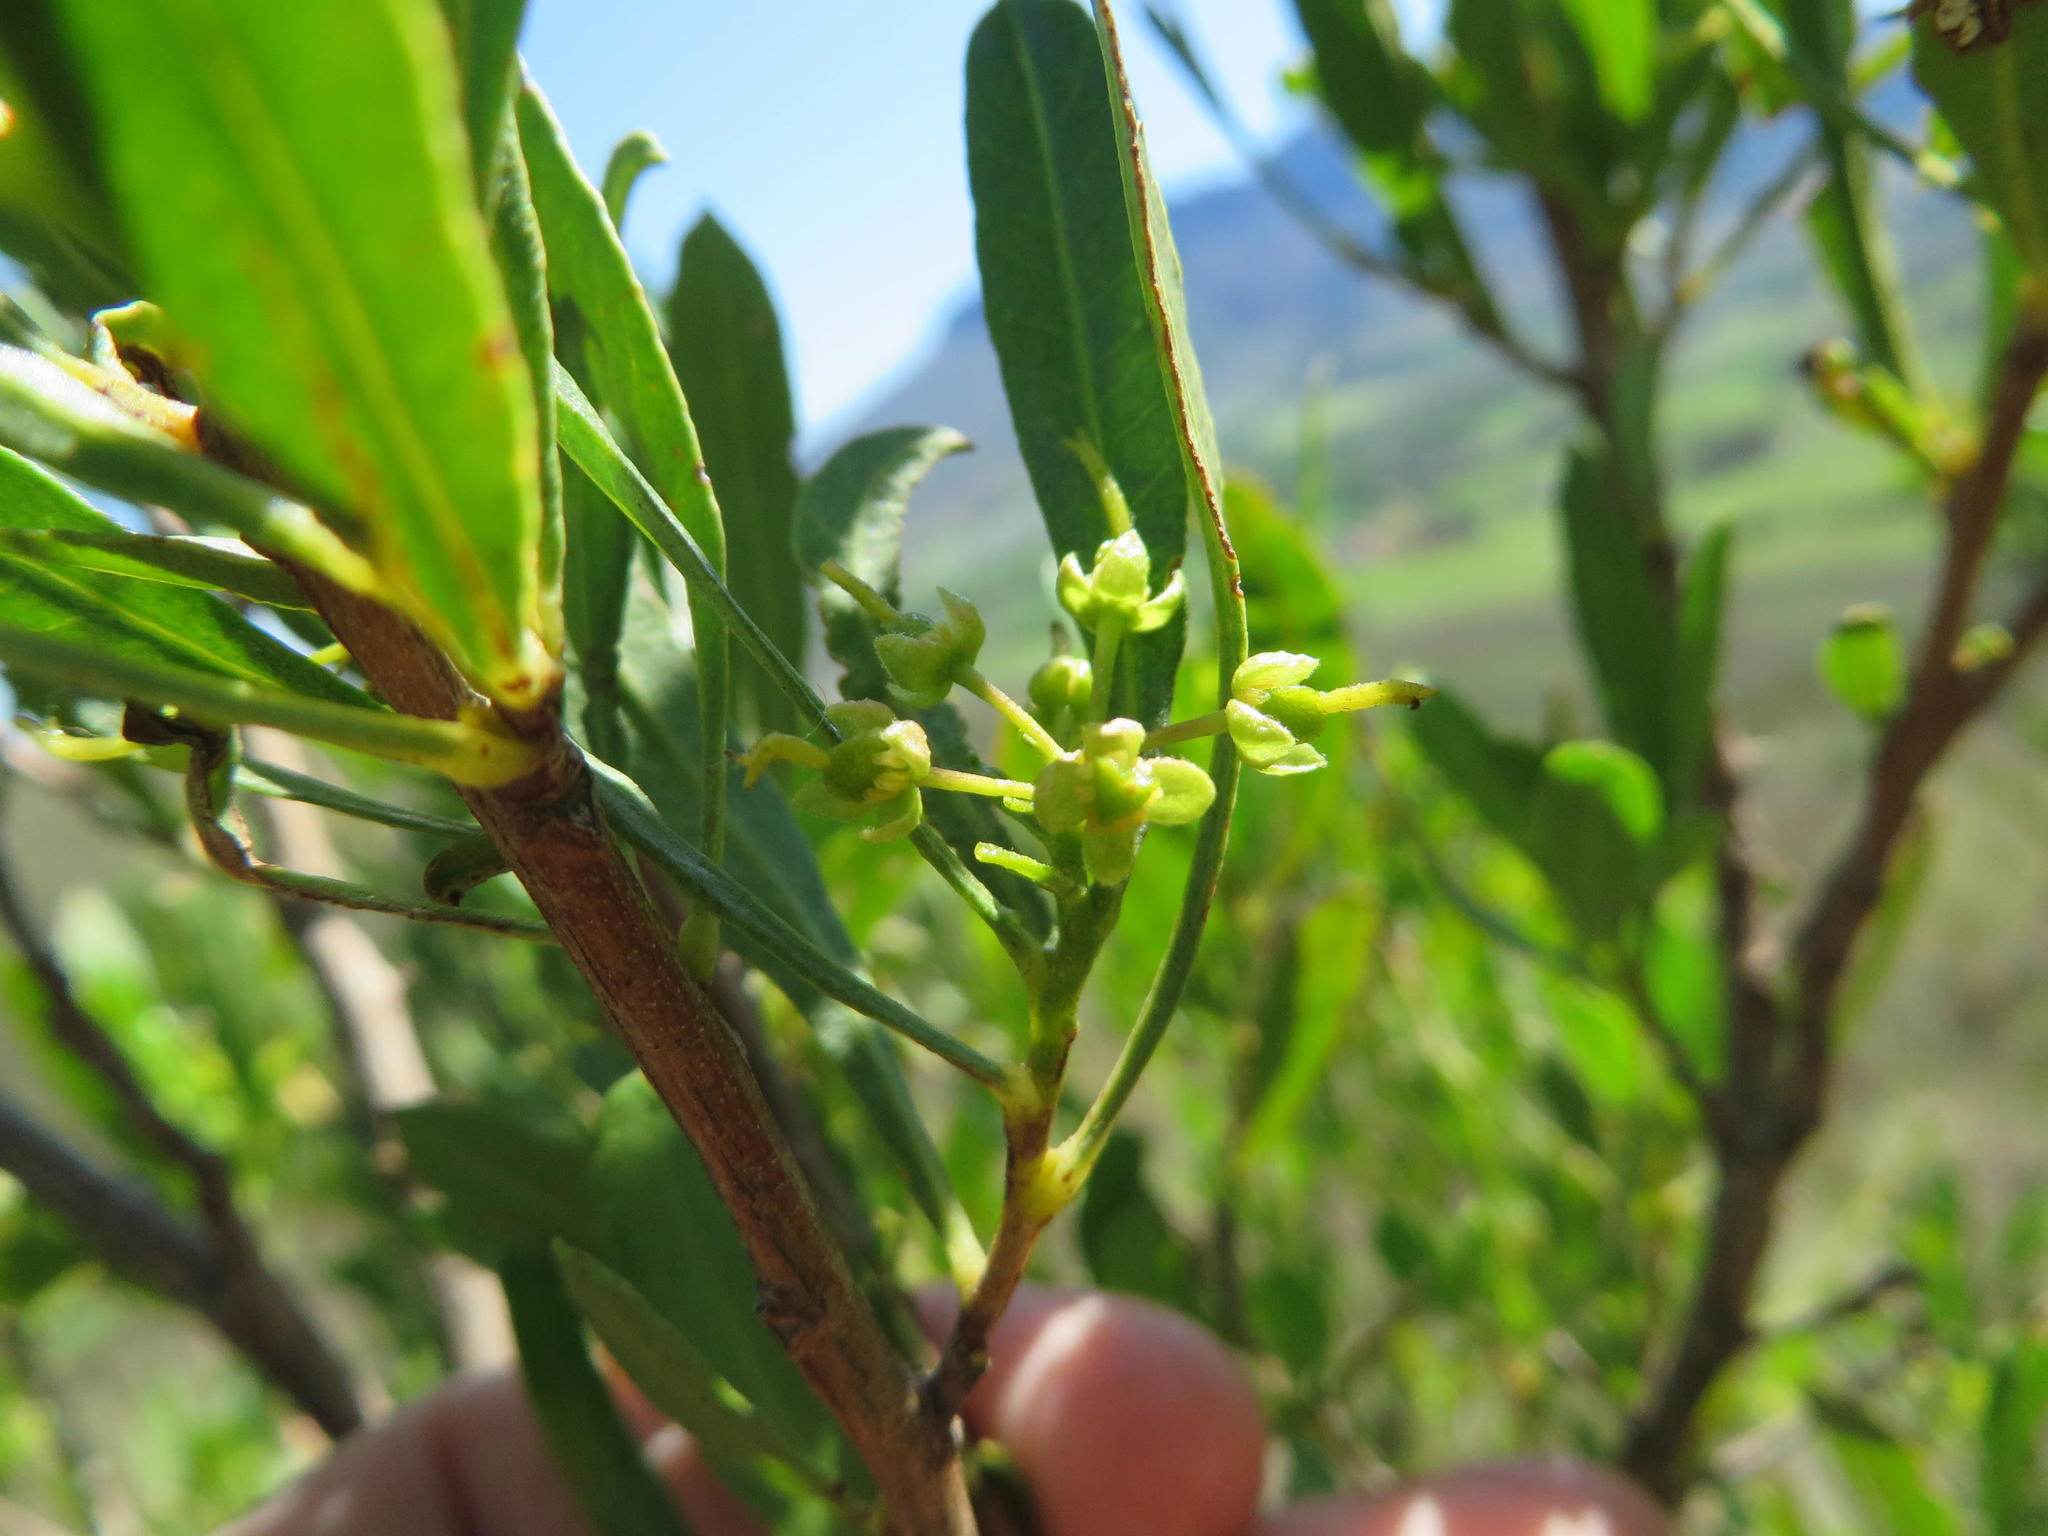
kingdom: Plantae
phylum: Tracheophyta
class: Magnoliopsida
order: Sapindales
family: Sapindaceae
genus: Dodonaea
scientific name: Dodonaea viscosa
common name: Hopbush
